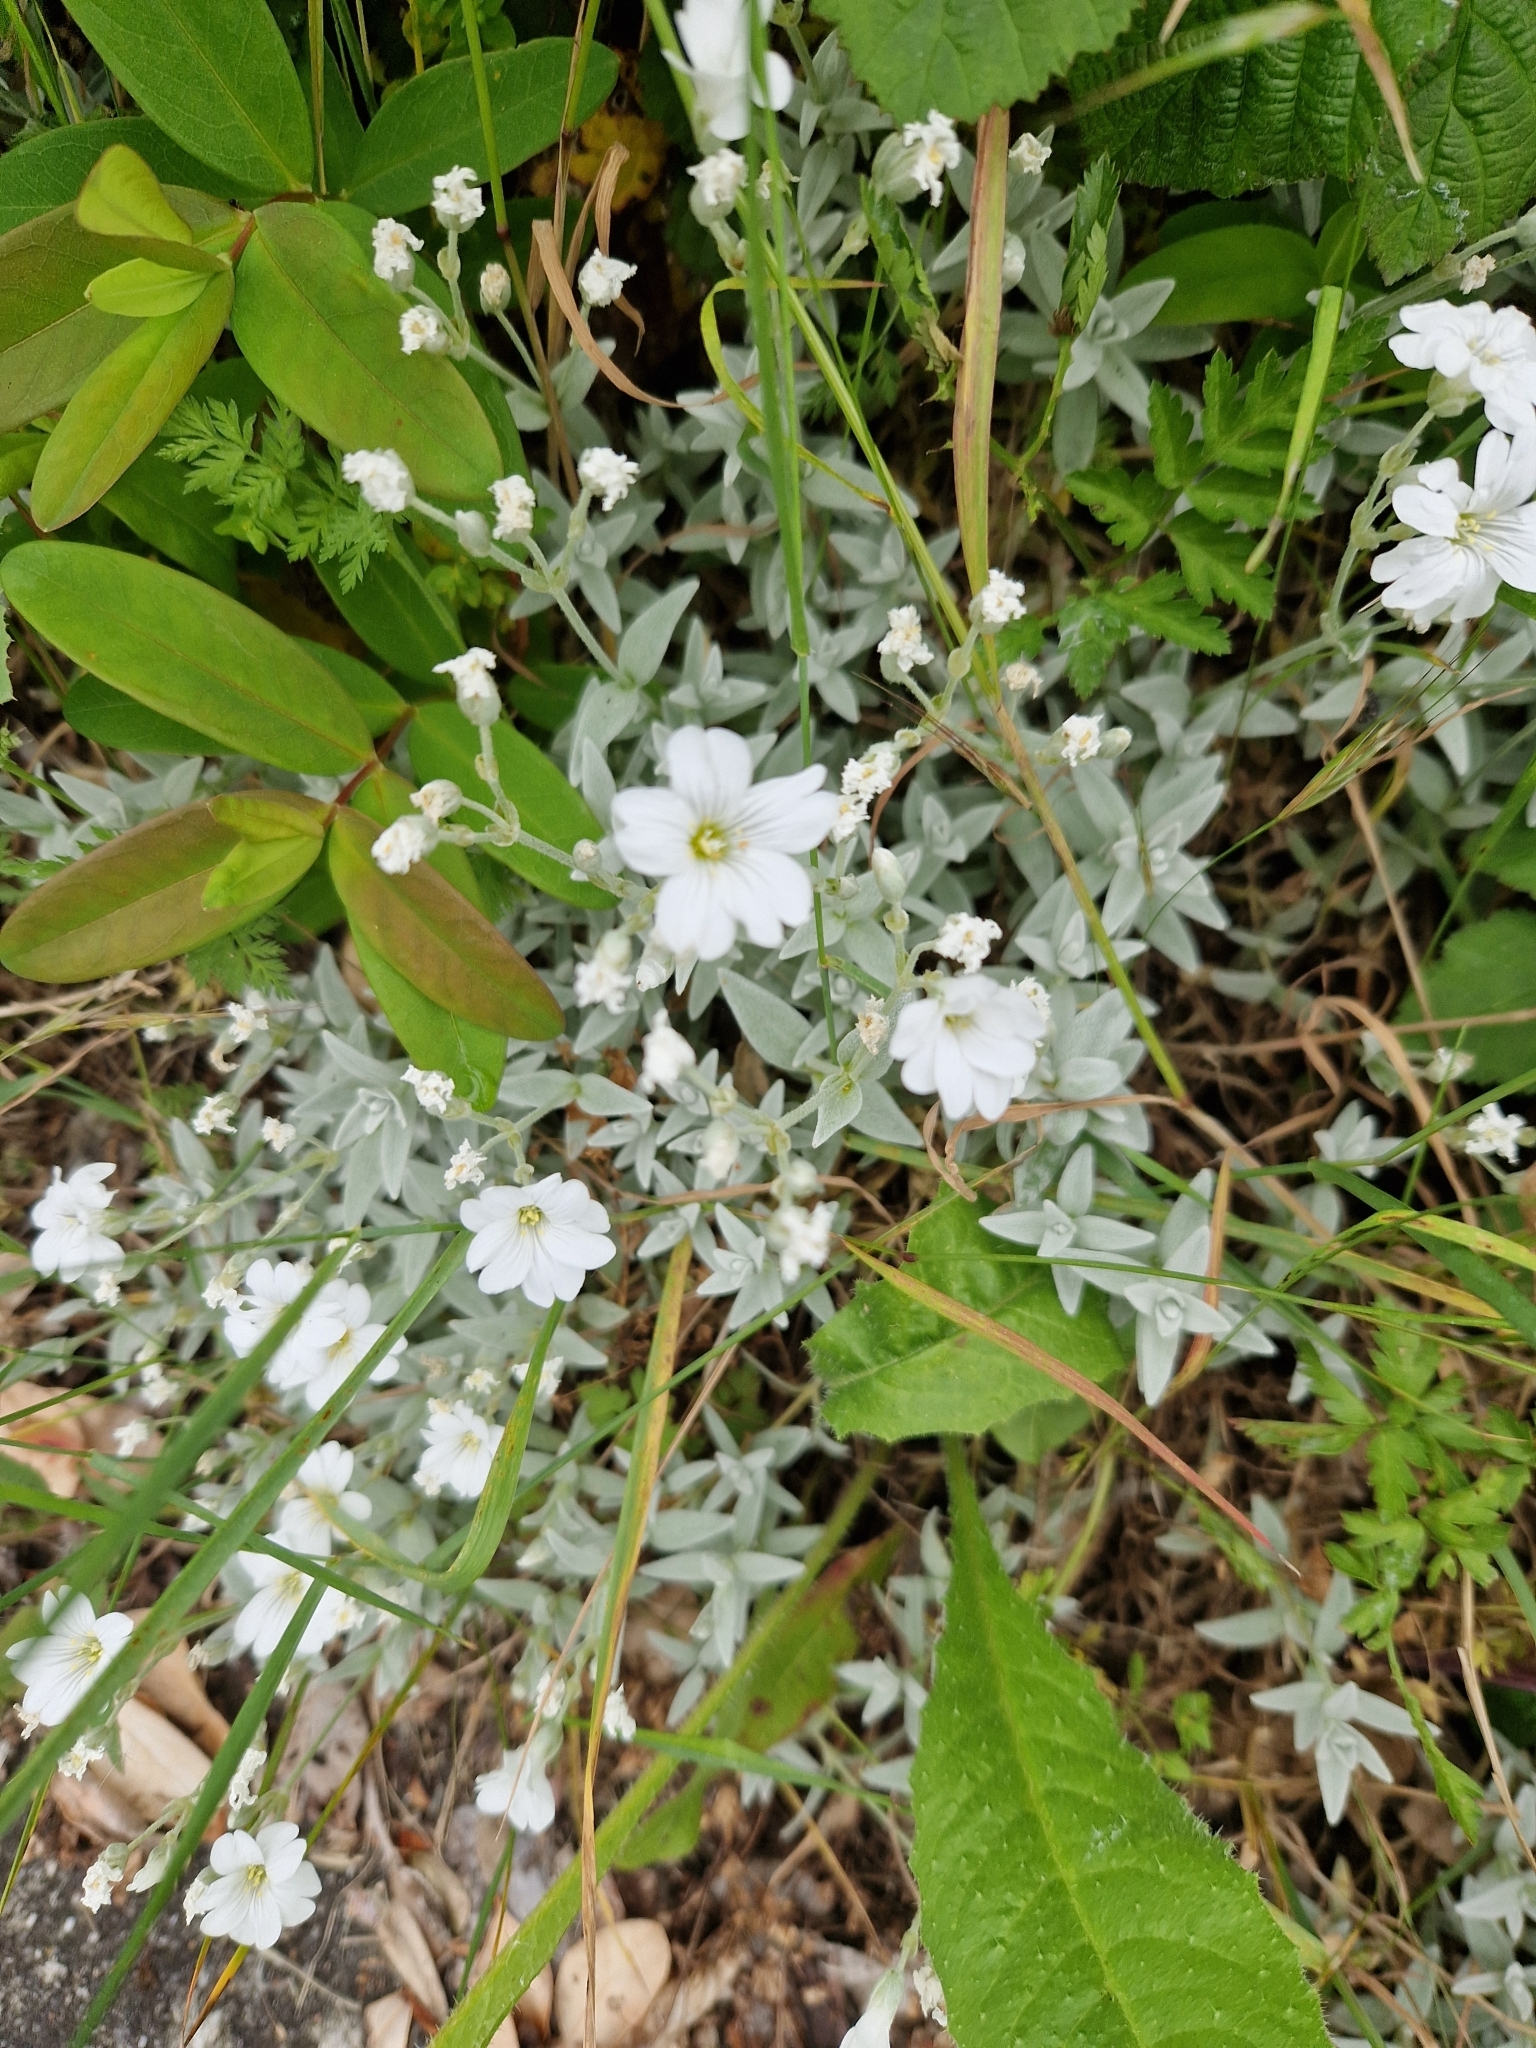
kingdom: Plantae
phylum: Tracheophyta
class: Magnoliopsida
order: Caryophyllales
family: Caryophyllaceae
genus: Cerastium
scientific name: Cerastium tomentosum
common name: Snow-in-summer
